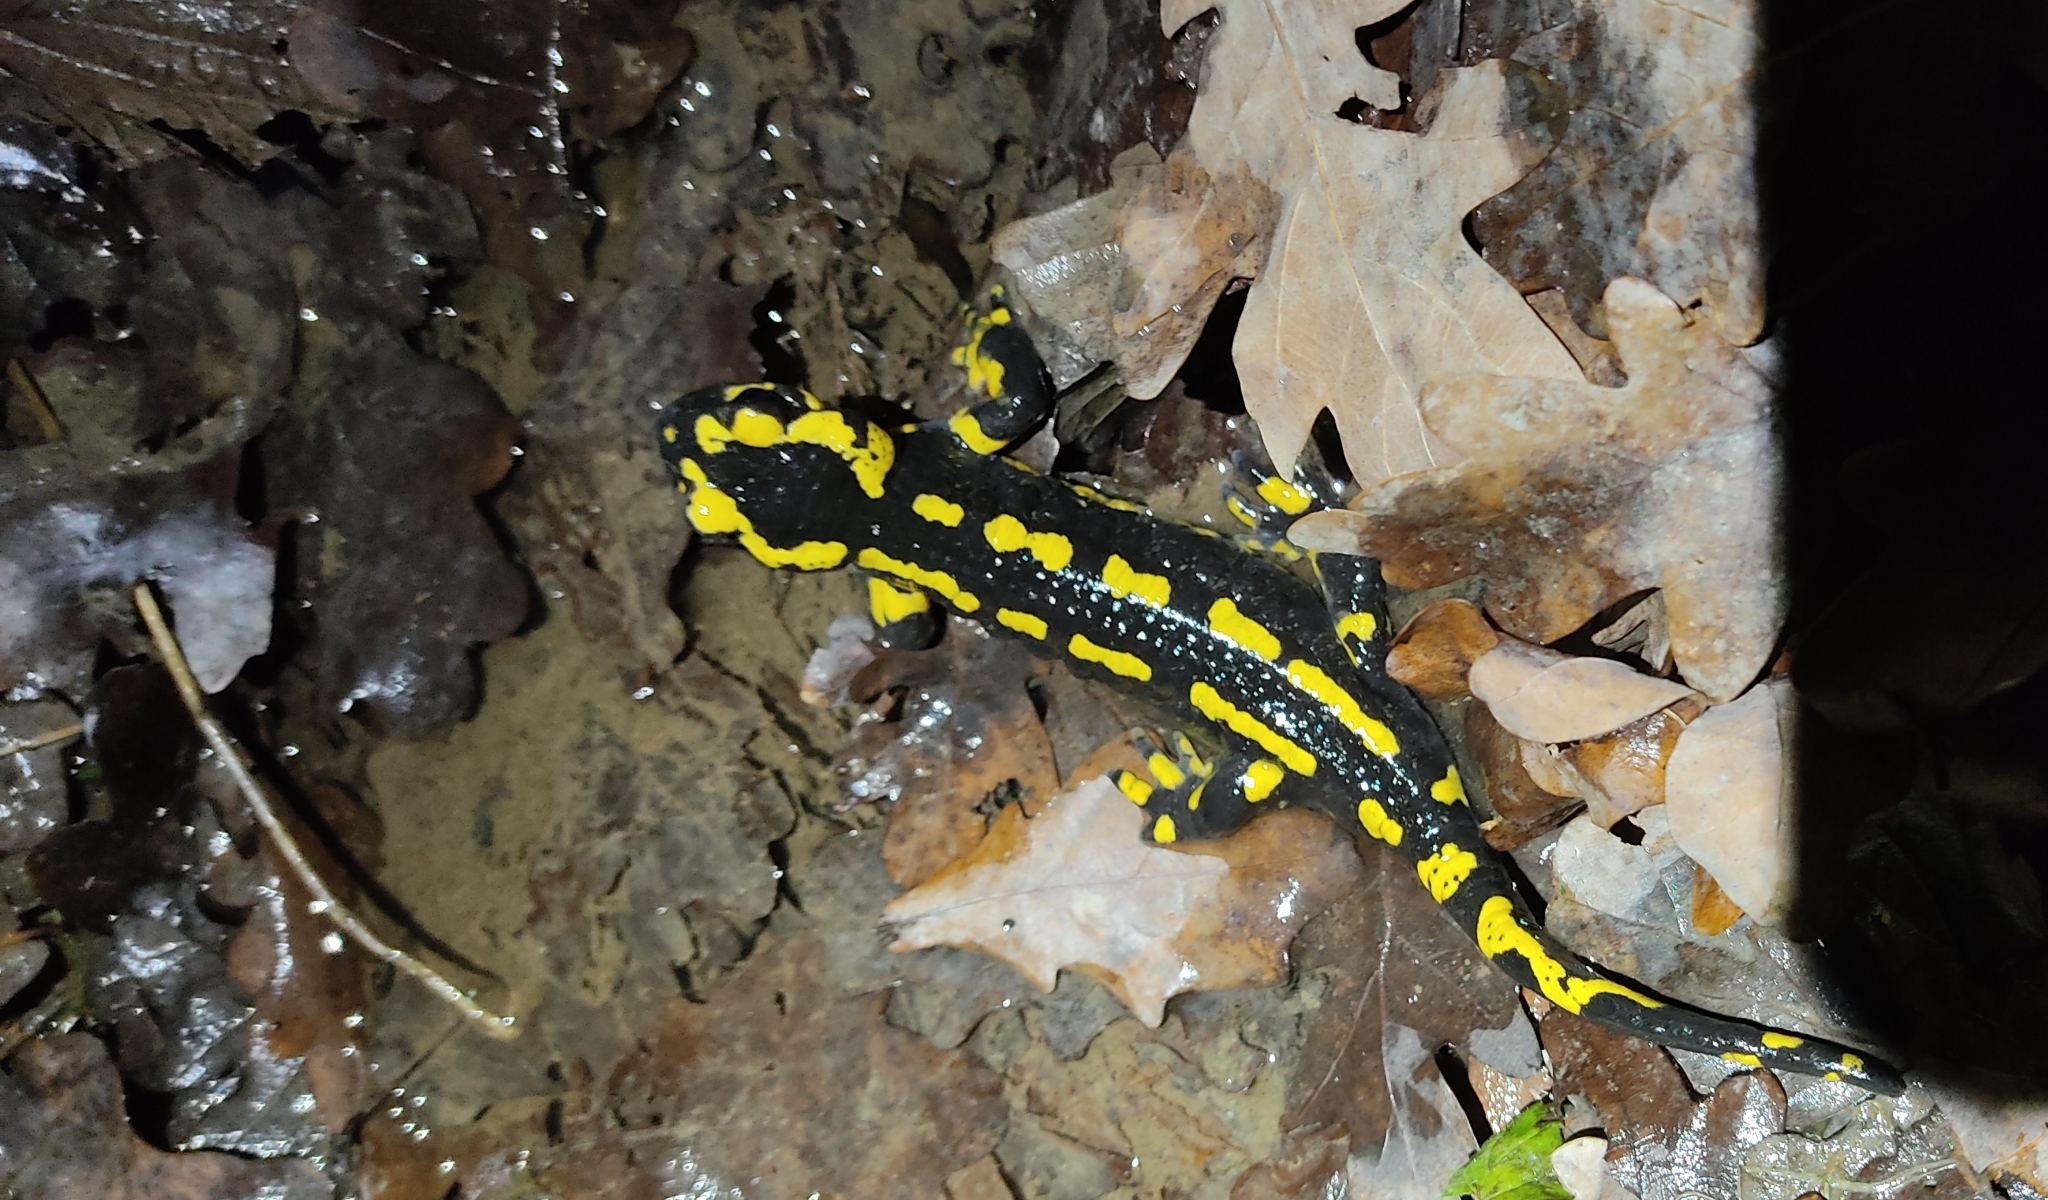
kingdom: Animalia
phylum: Chordata
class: Amphibia
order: Caudata
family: Salamandridae
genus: Salamandra
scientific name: Salamandra salamandra
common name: Fire salamander
